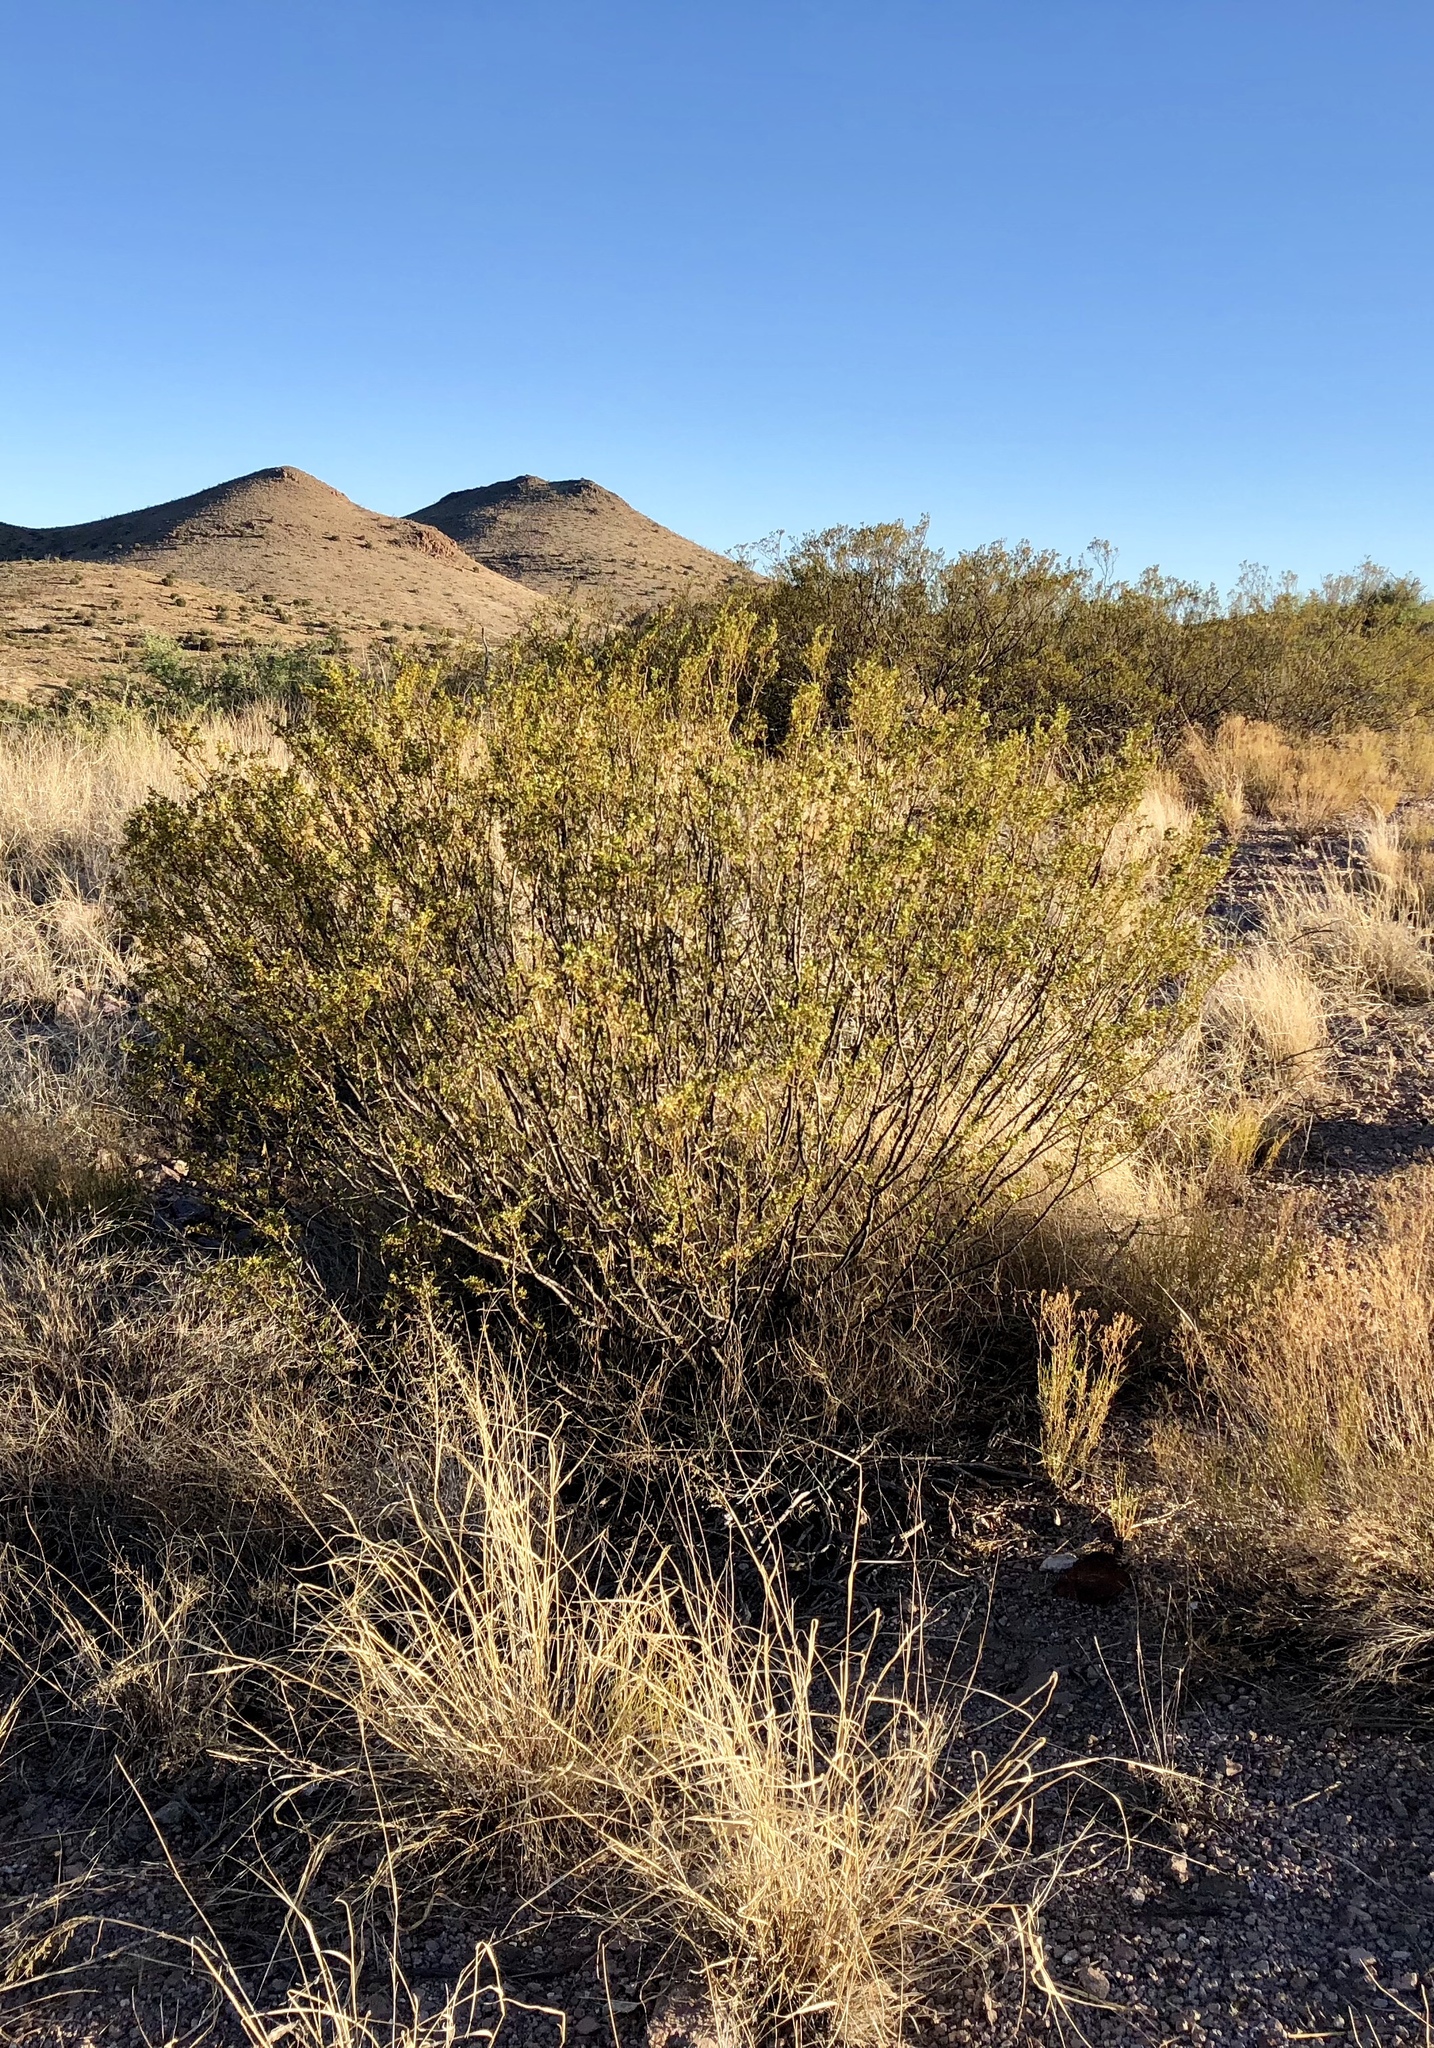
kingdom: Plantae
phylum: Tracheophyta
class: Magnoliopsida
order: Zygophyllales
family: Zygophyllaceae
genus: Larrea
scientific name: Larrea tridentata
